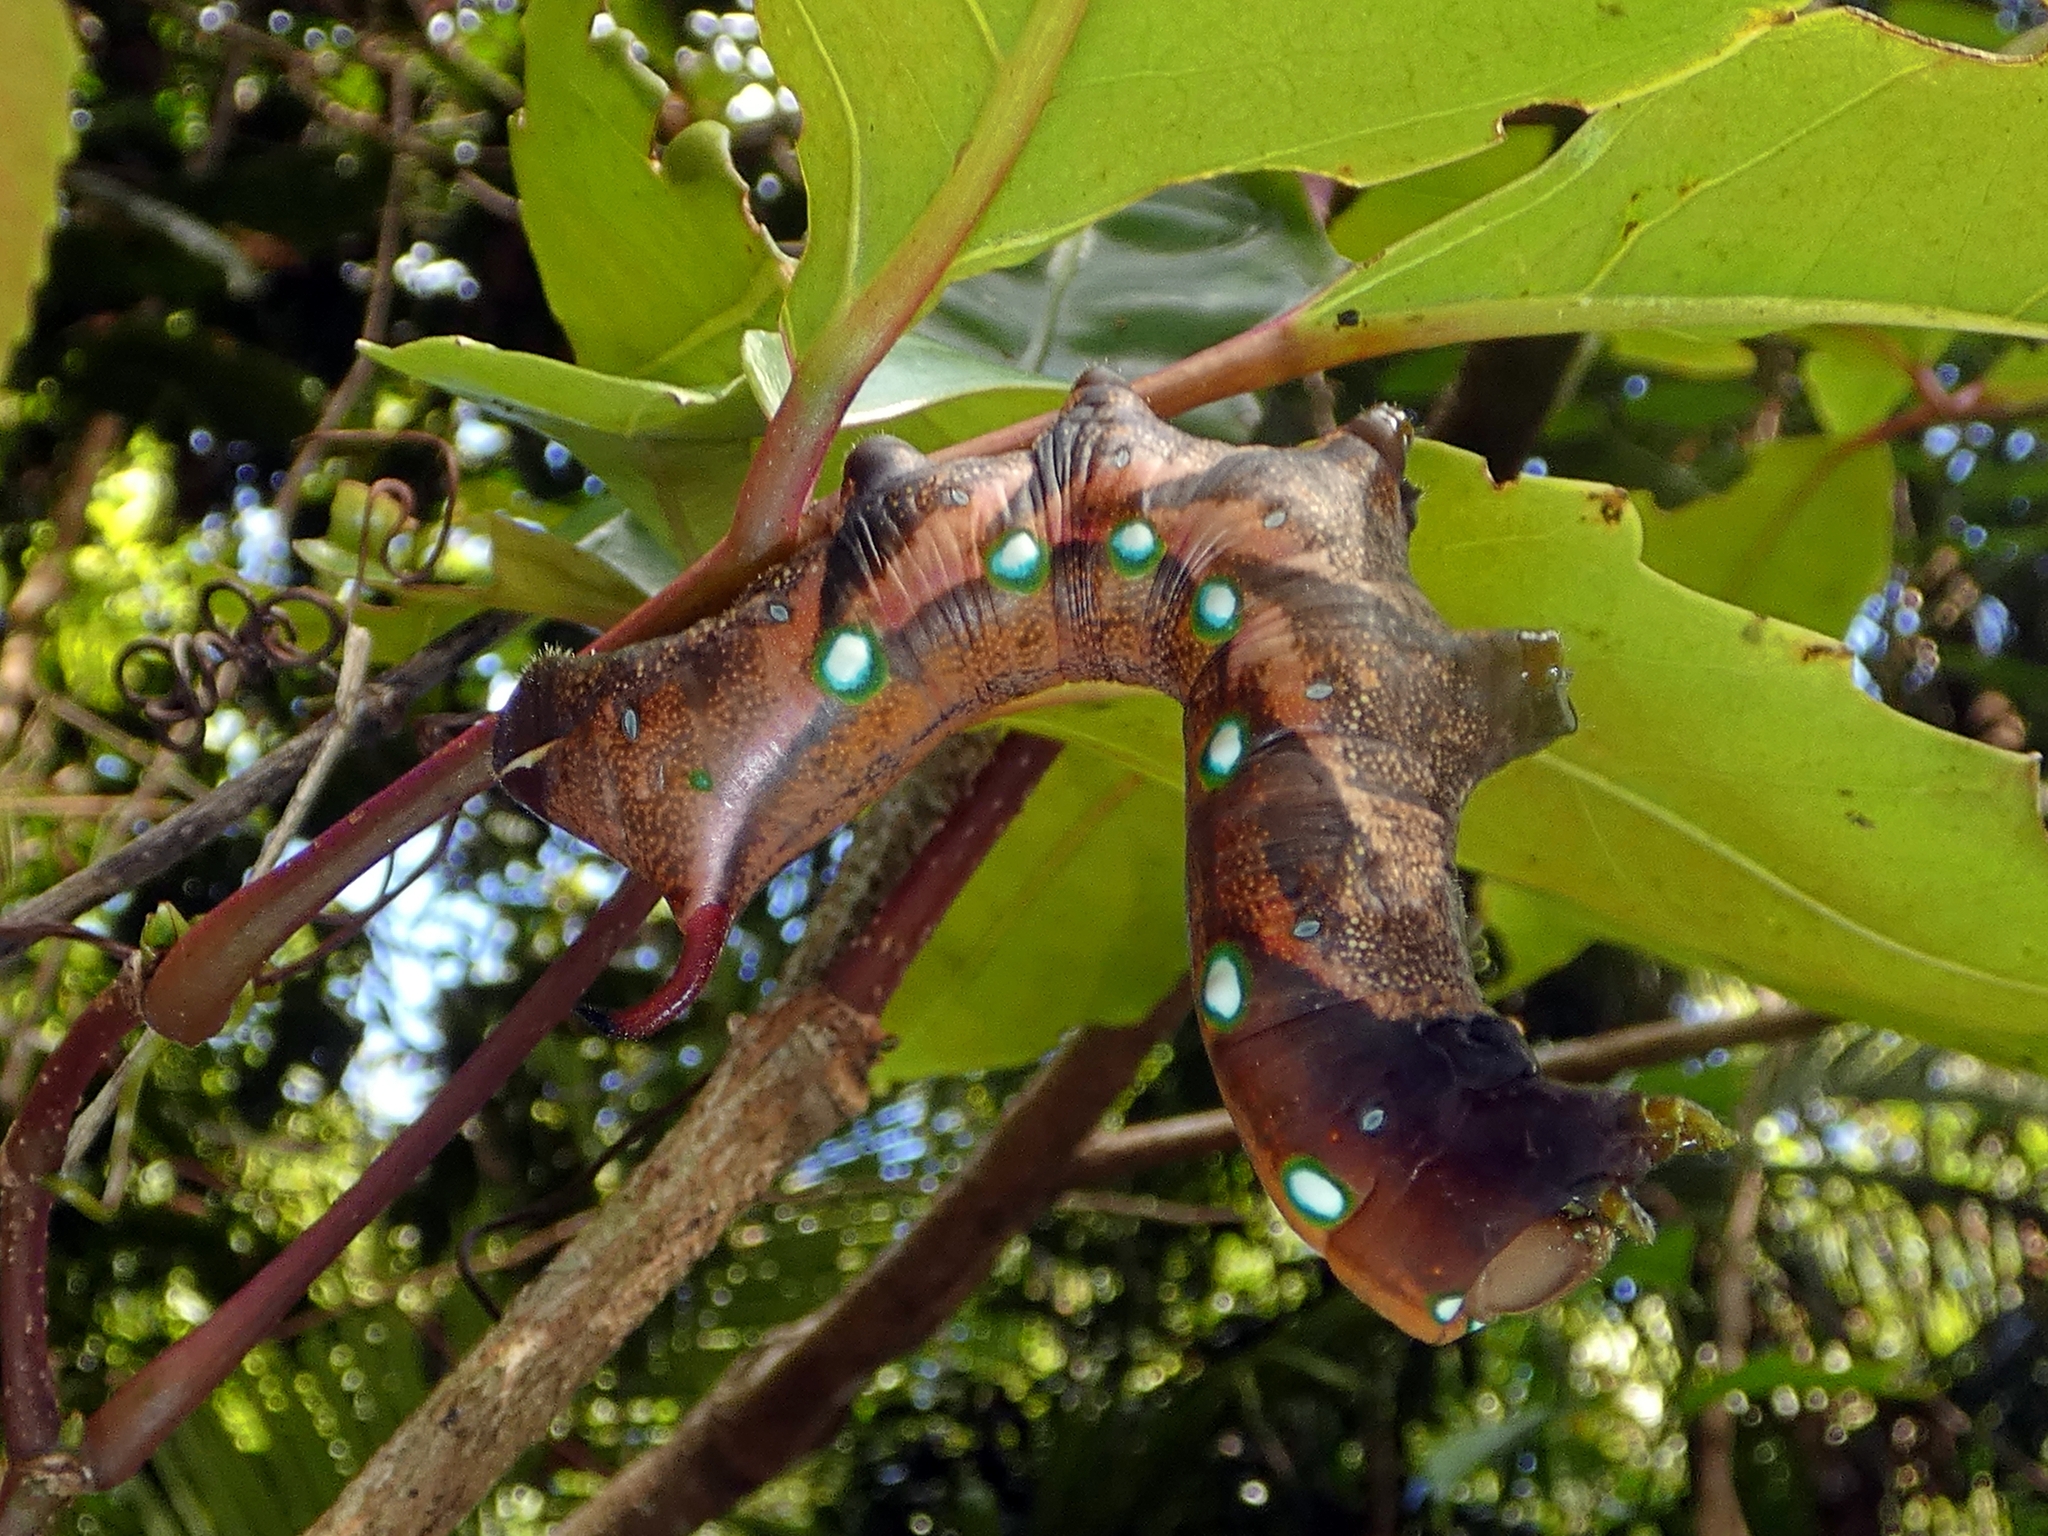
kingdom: Animalia
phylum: Arthropoda
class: Insecta
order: Lepidoptera
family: Sphingidae
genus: Gnathothlibus
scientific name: Gnathothlibus eras
